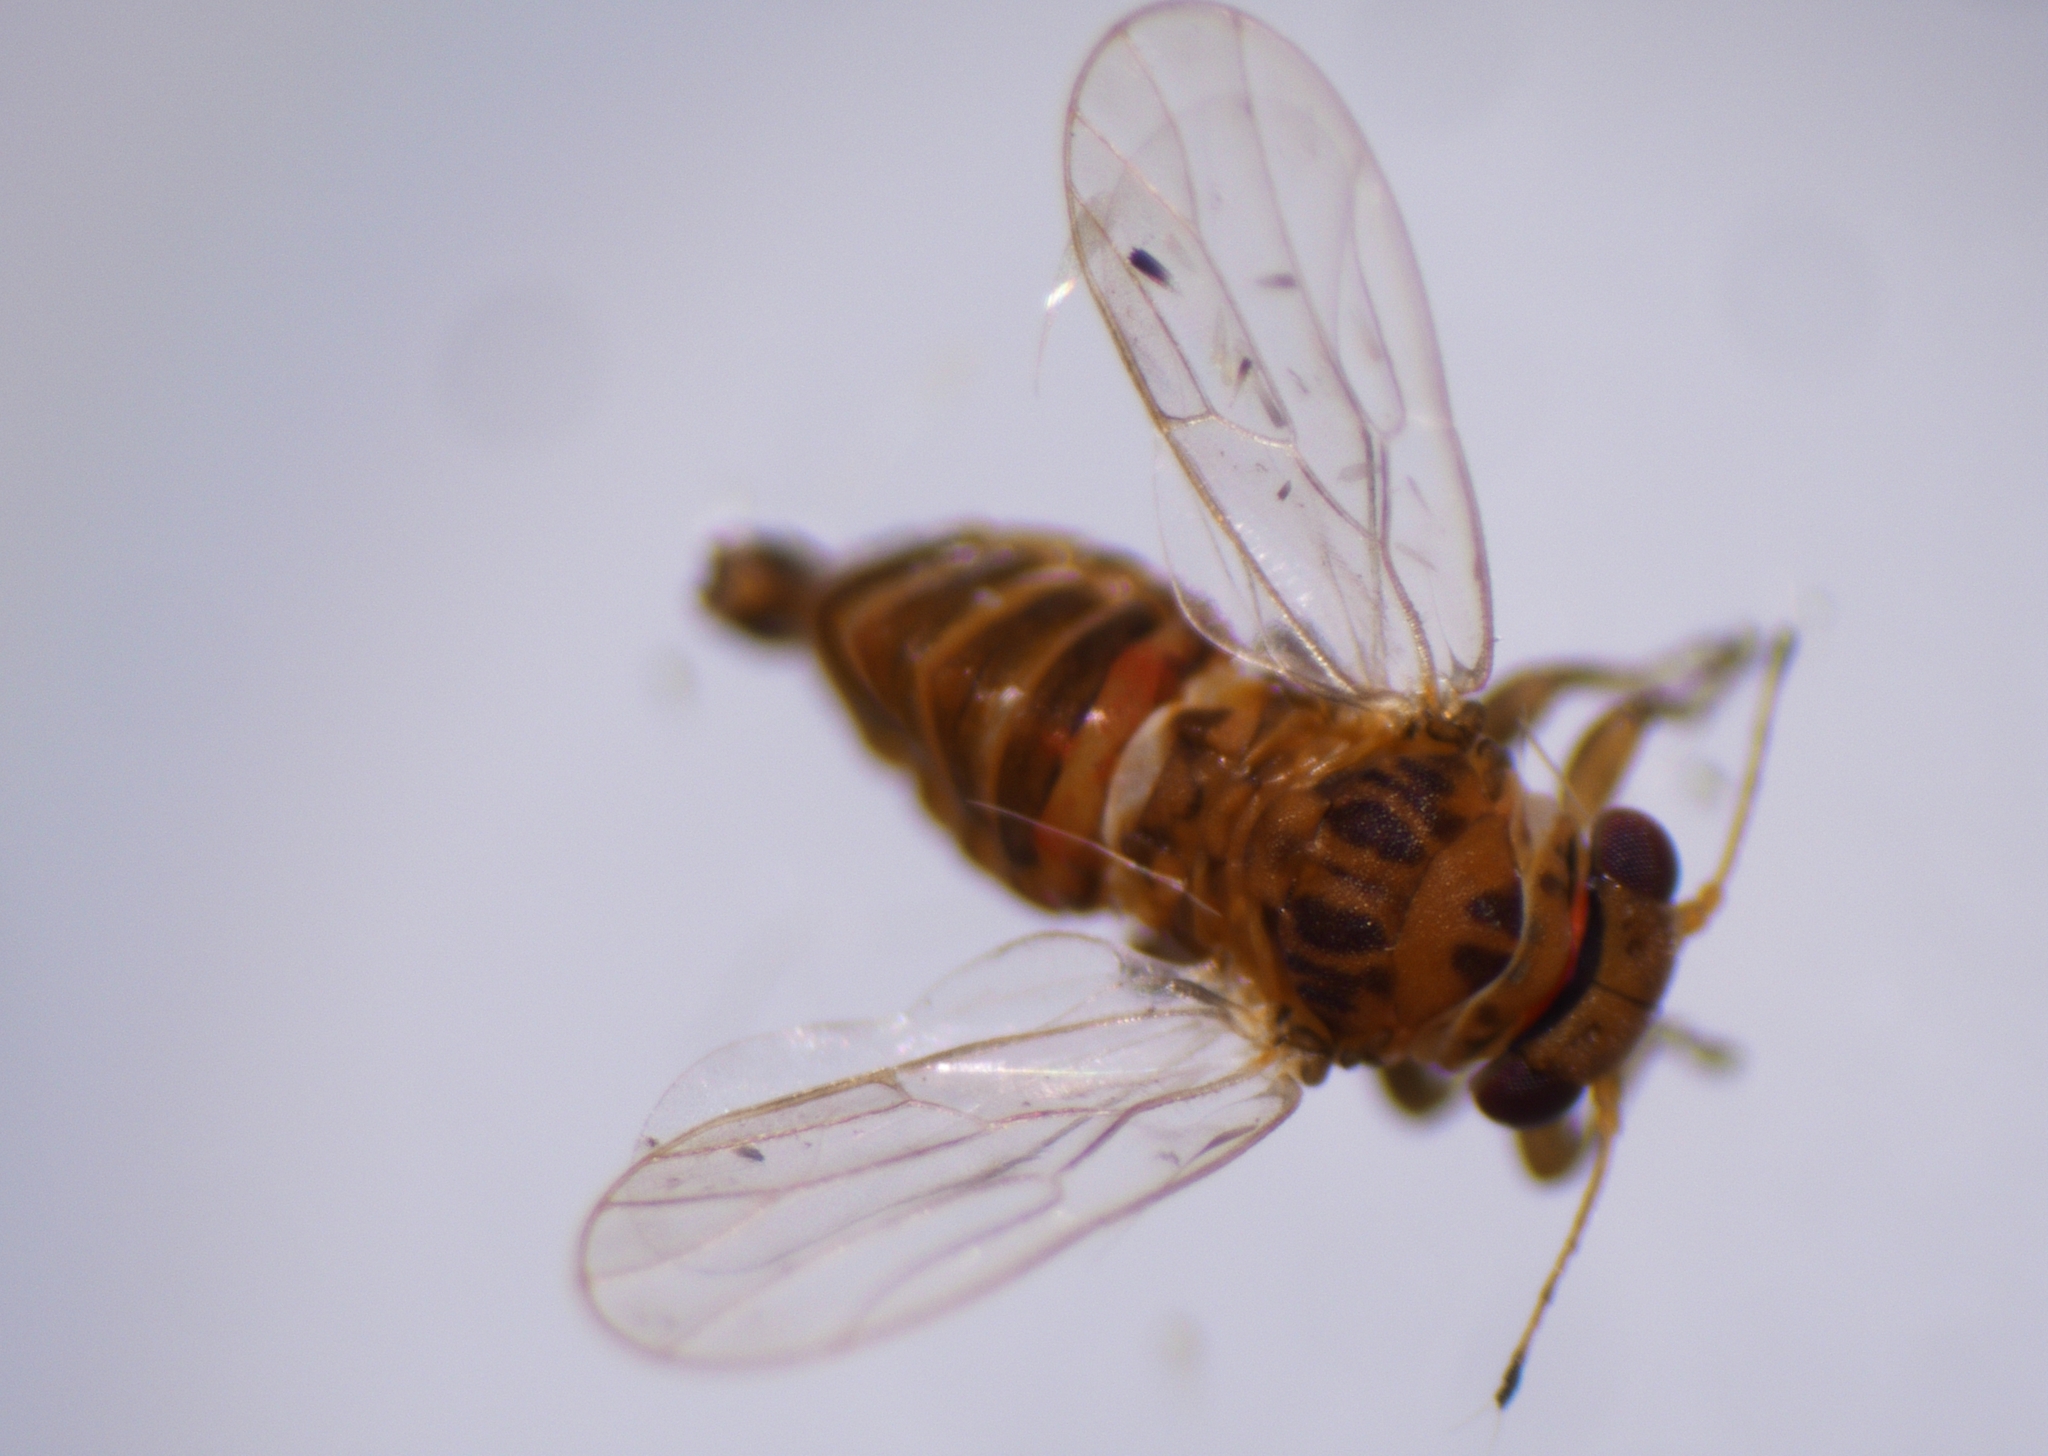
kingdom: Animalia
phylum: Arthropoda
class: Insecta
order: Hemiptera
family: Liviidae
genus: Syntomoza
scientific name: Syntomoza tahuata
